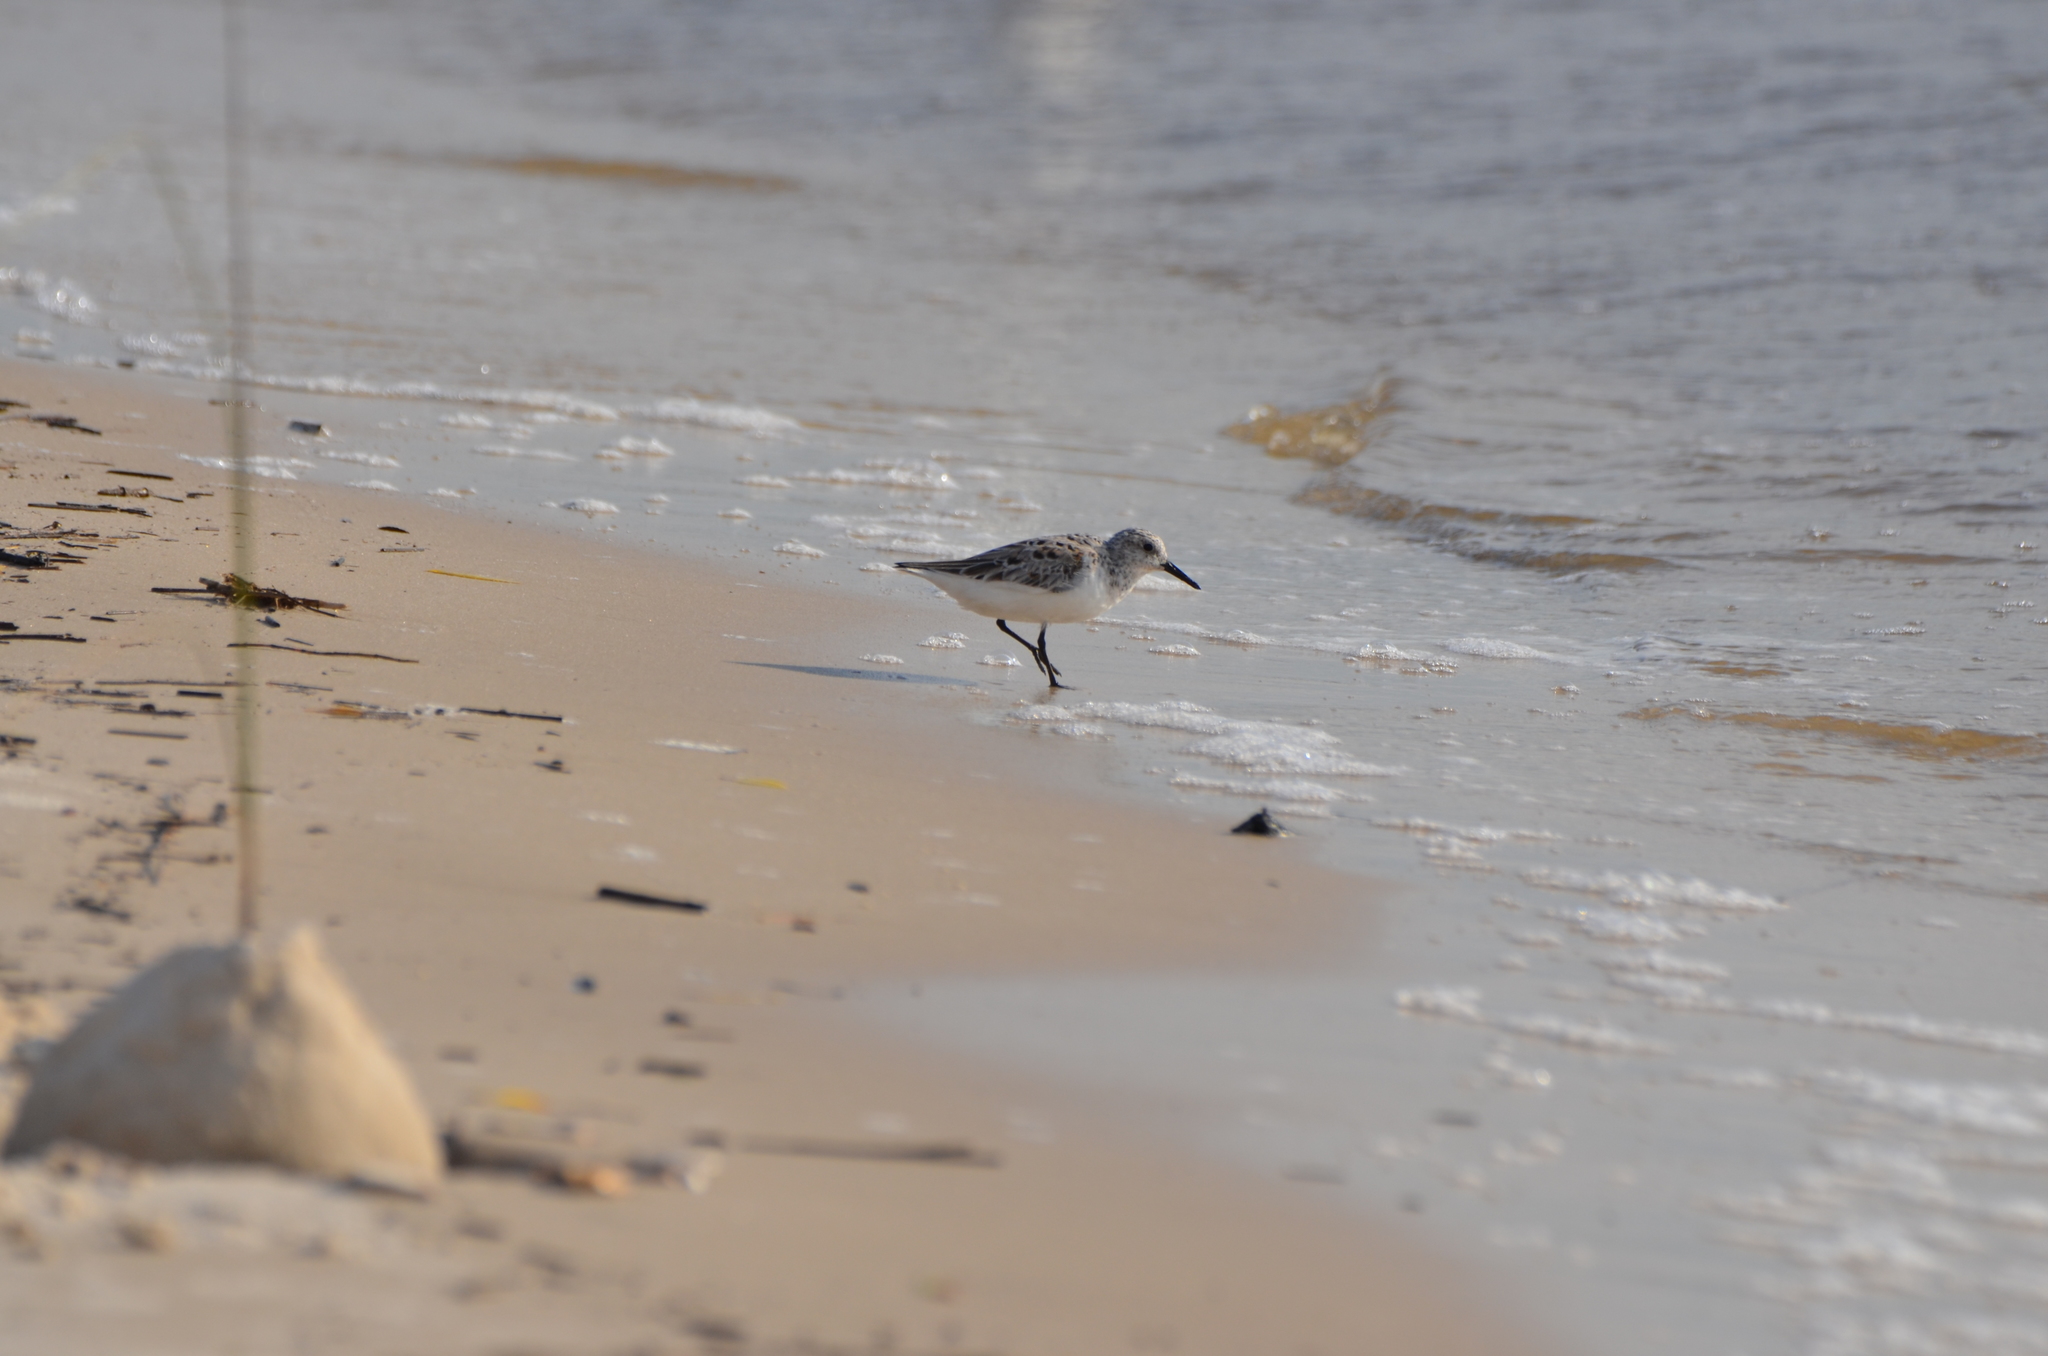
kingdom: Animalia
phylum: Chordata
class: Aves
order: Charadriiformes
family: Scolopacidae
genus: Calidris
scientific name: Calidris alba
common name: Sanderling
